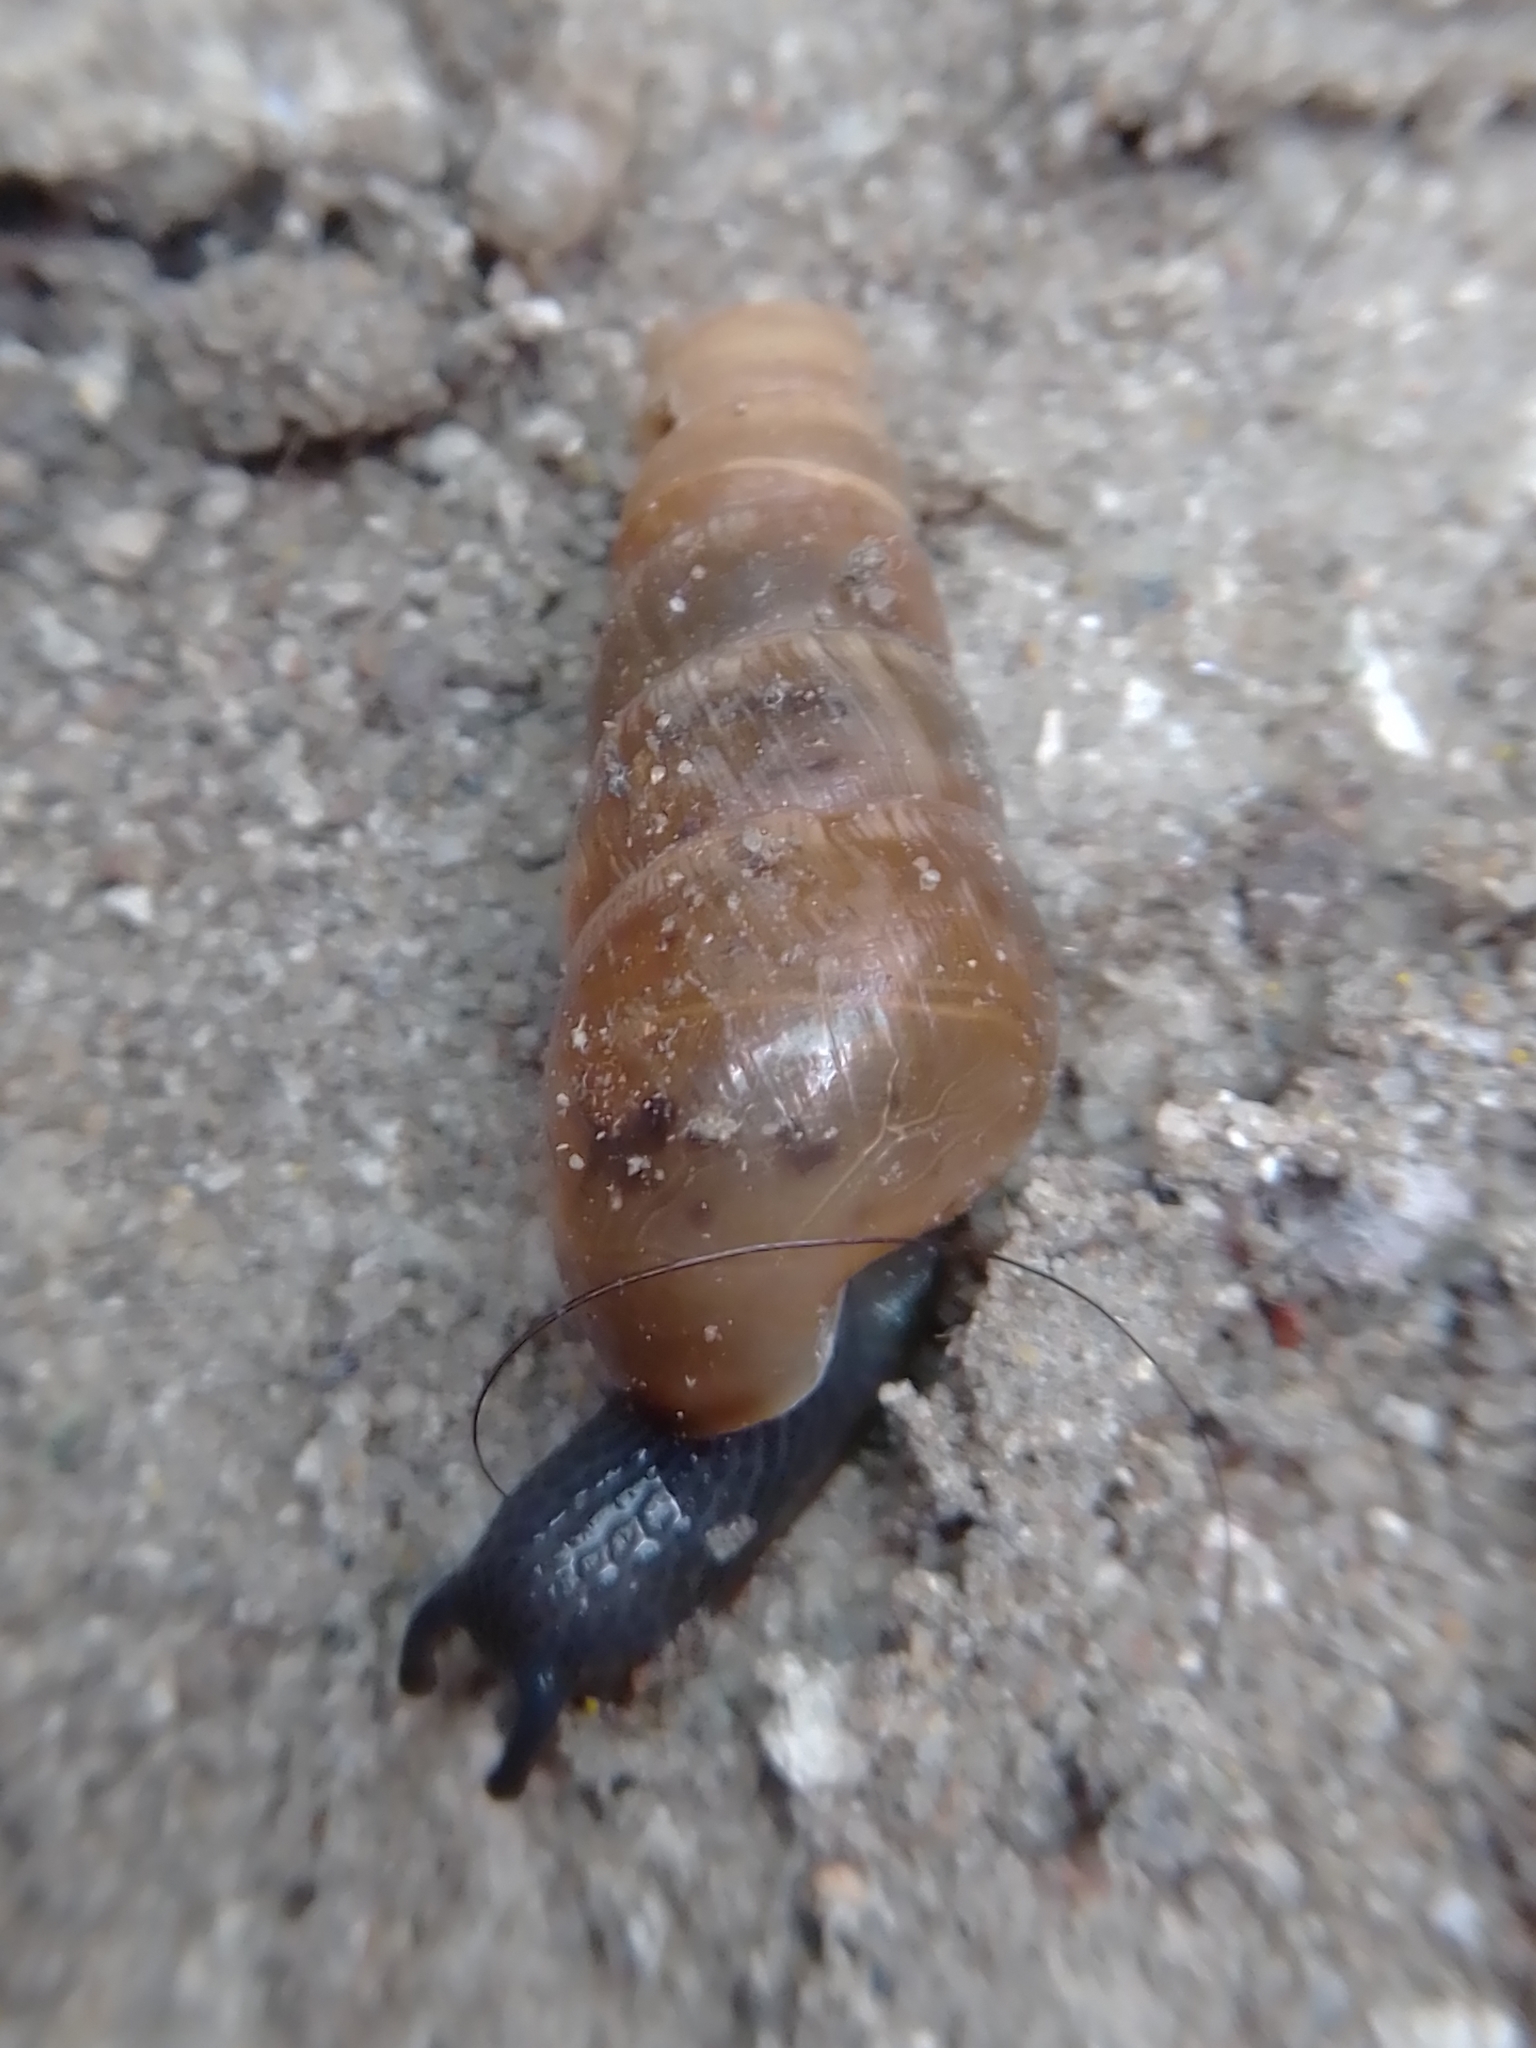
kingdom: Animalia
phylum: Mollusca
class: Gastropoda
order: Stylommatophora
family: Achatinidae
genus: Rumina
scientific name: Rumina decollata
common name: Decollate snail
